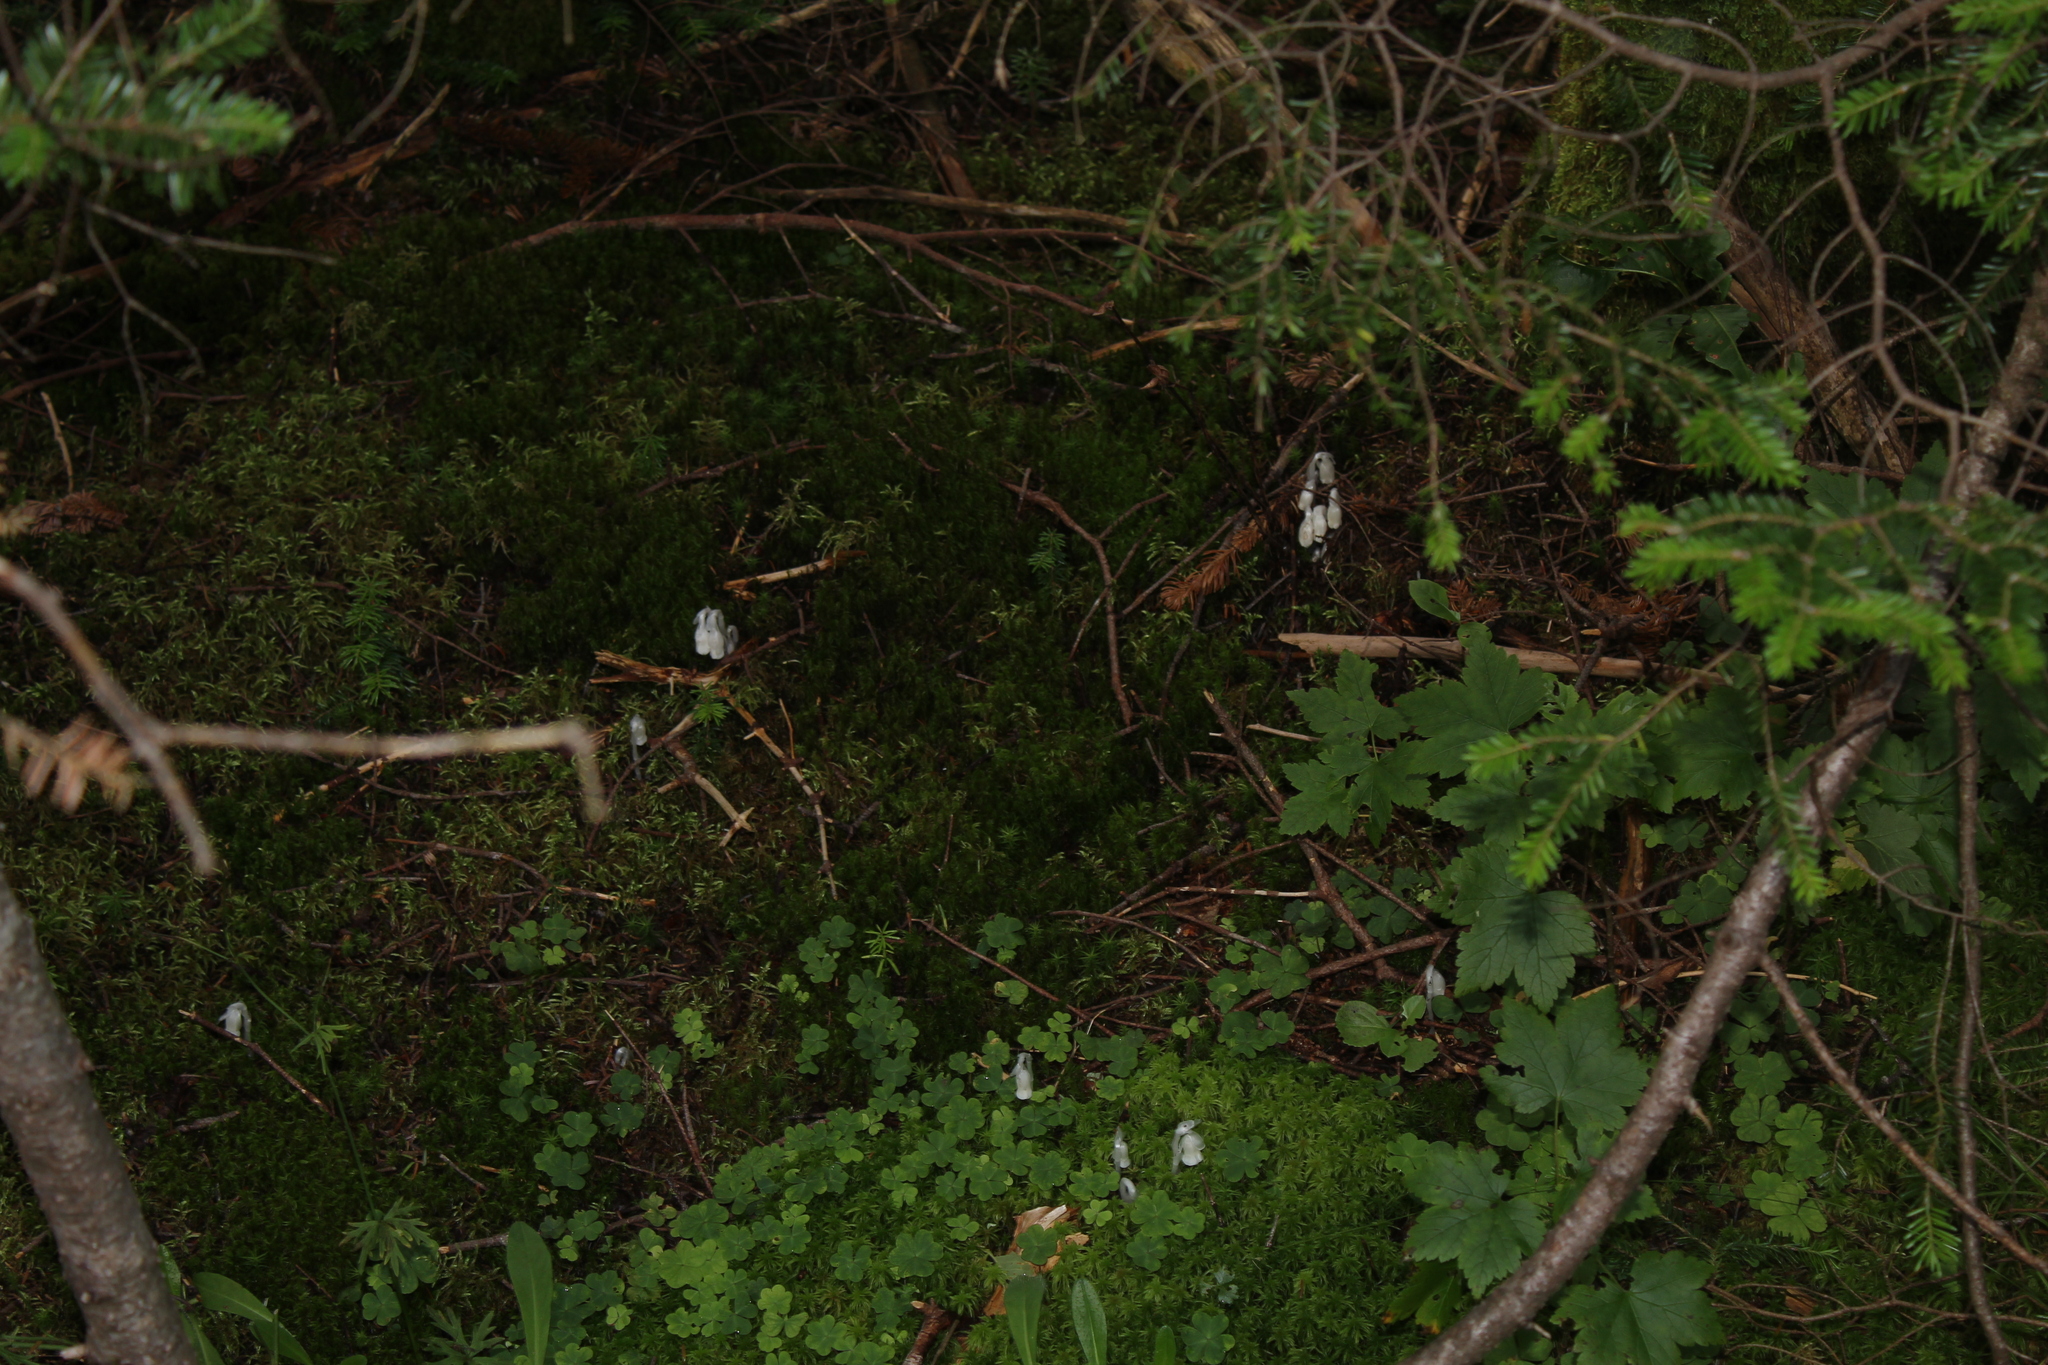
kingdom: Plantae
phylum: Tracheophyta
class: Magnoliopsida
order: Ericales
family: Ericaceae
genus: Monotropa
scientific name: Monotropa uniflora
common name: Convulsion root
